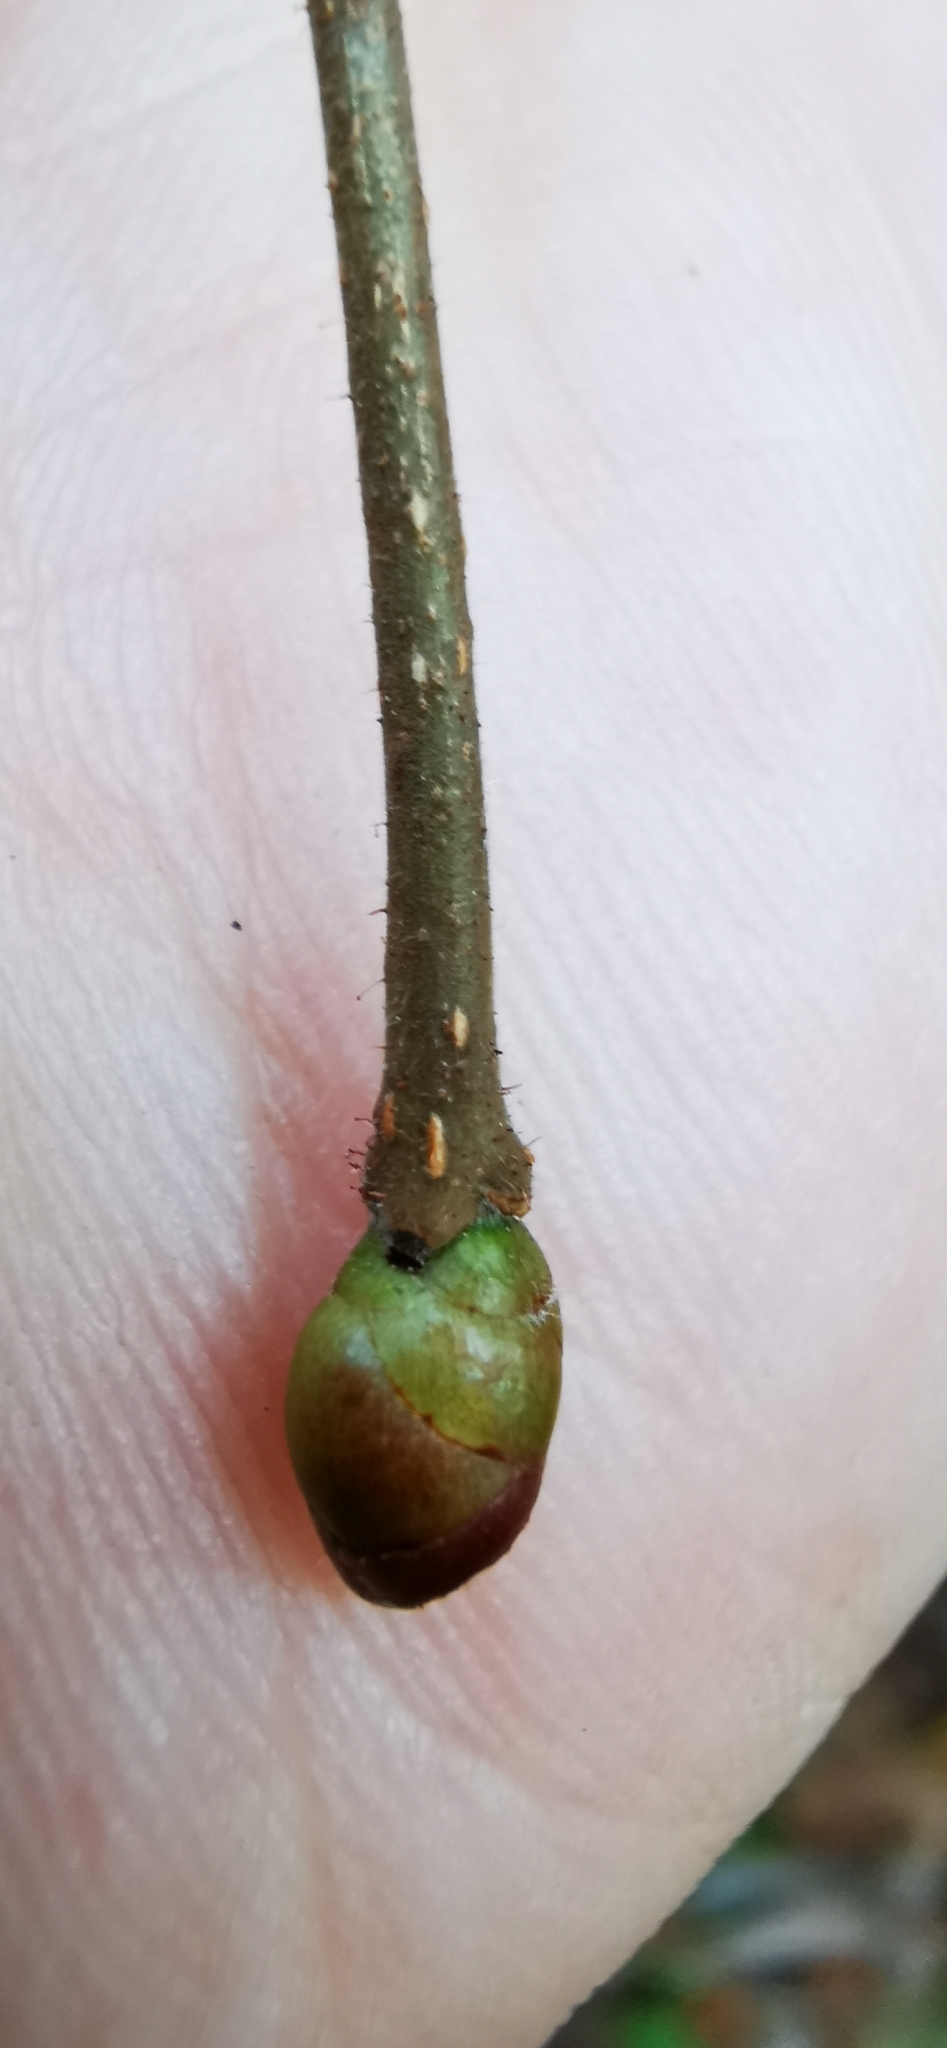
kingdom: Plantae
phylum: Tracheophyta
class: Magnoliopsida
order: Fagales
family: Betulaceae
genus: Corylus
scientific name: Corylus avellana
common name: European hazel
